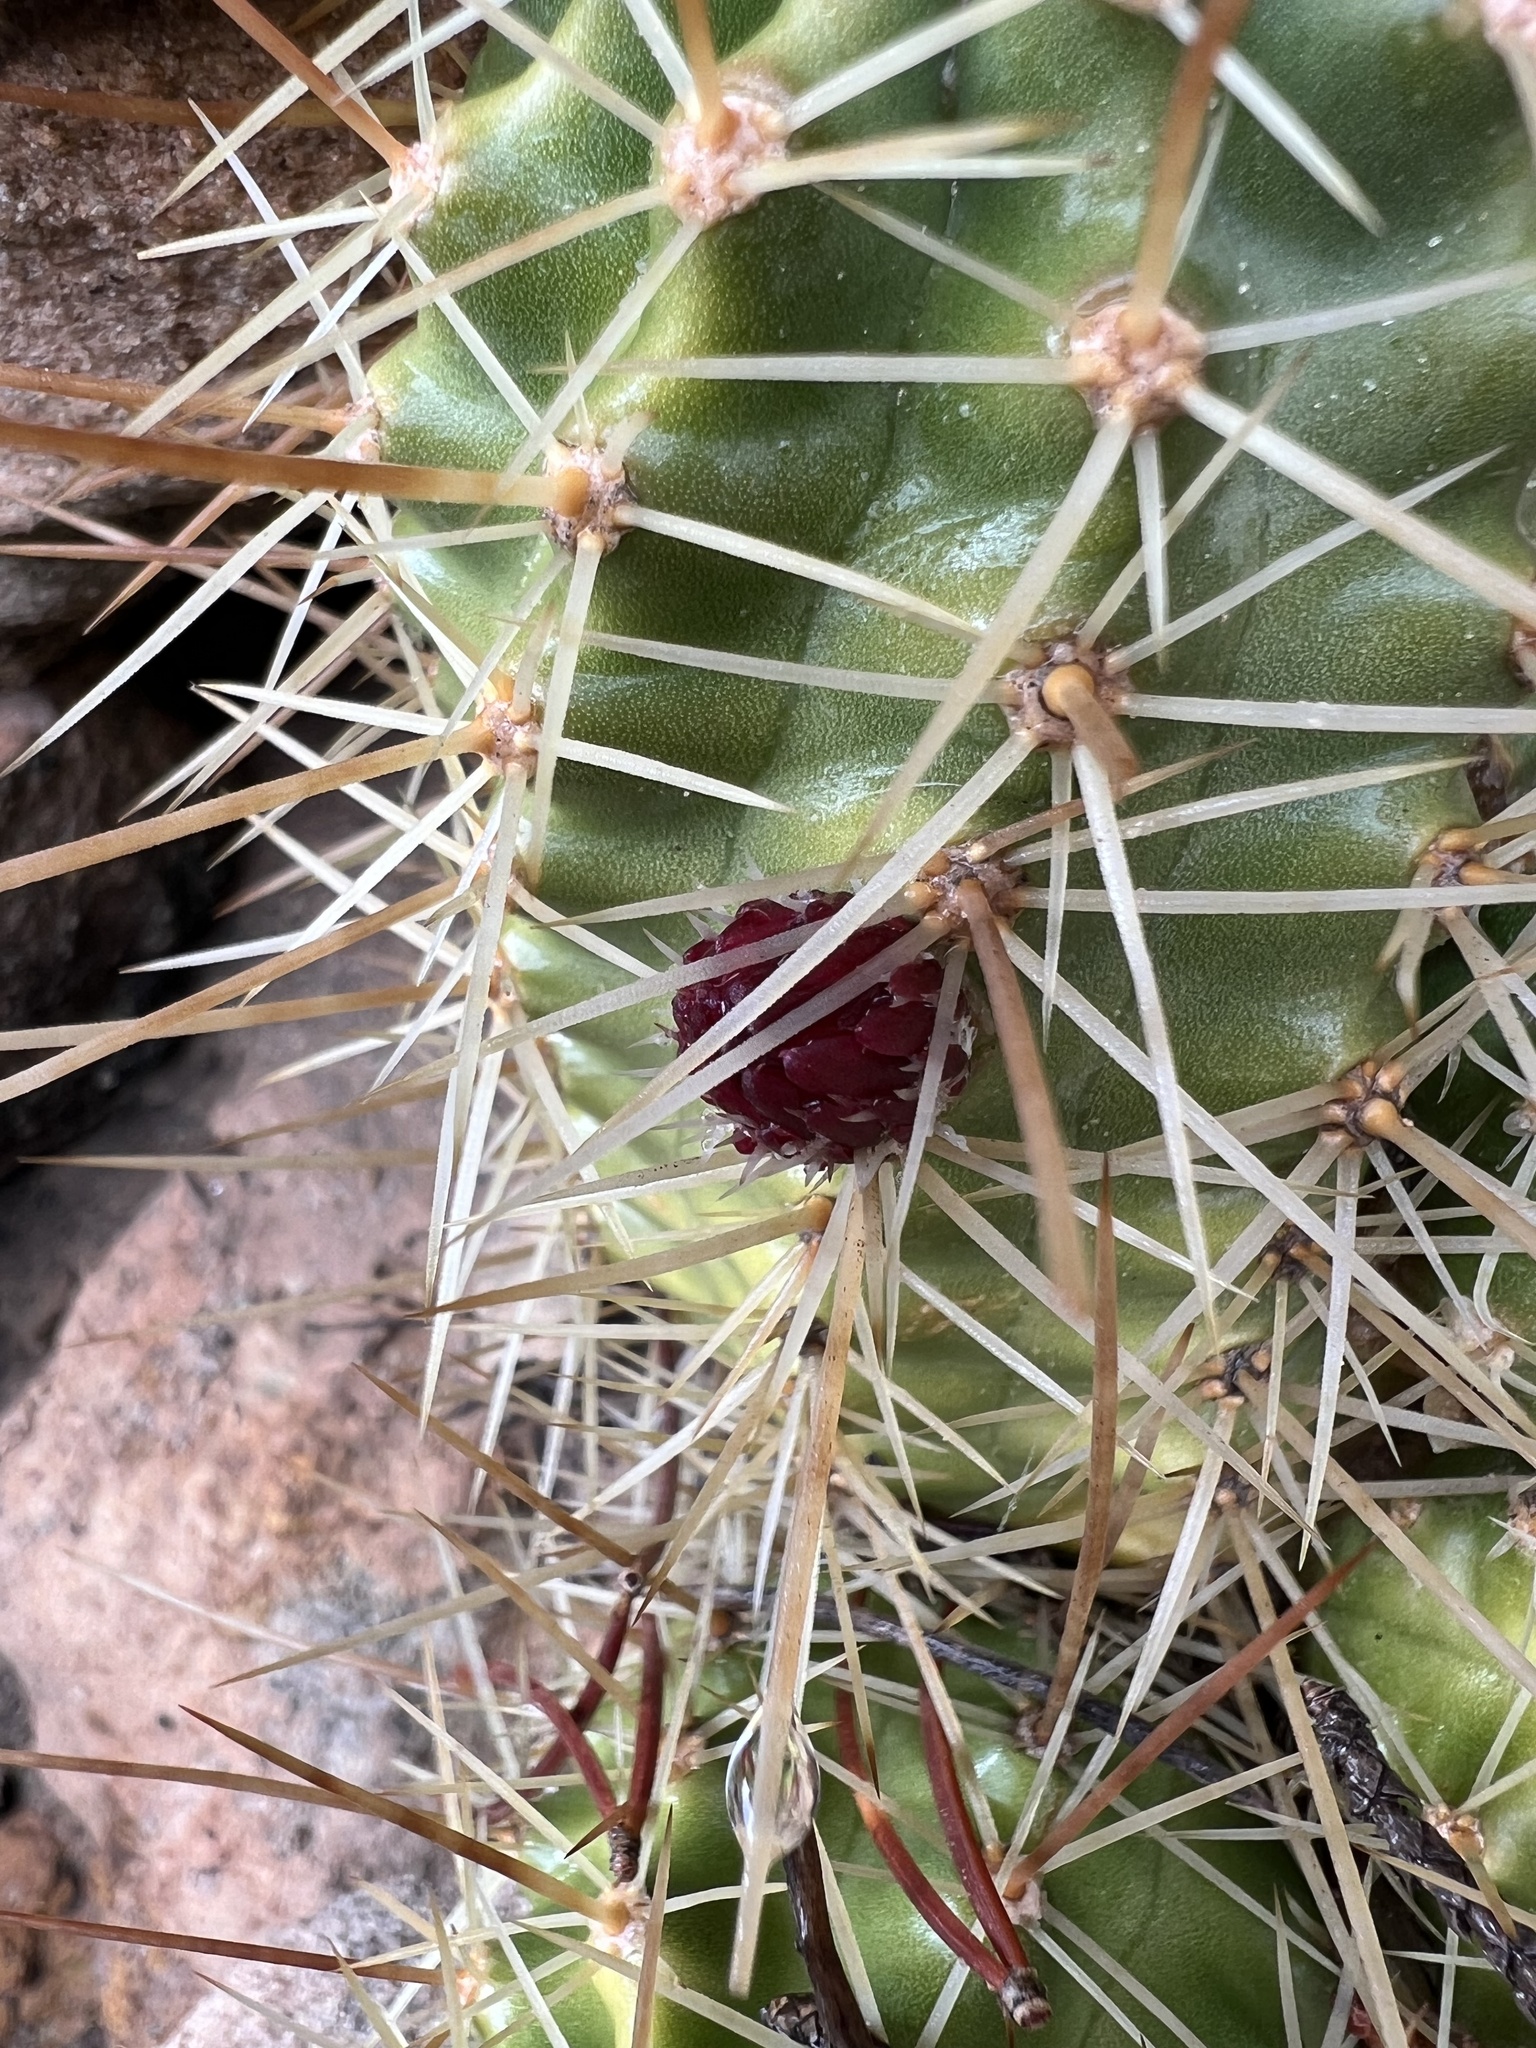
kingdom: Plantae
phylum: Tracheophyta
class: Magnoliopsida
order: Caryophyllales
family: Cactaceae
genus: Echinocereus
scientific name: Echinocereus triglochidiatus
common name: Claretcup hedgehog
